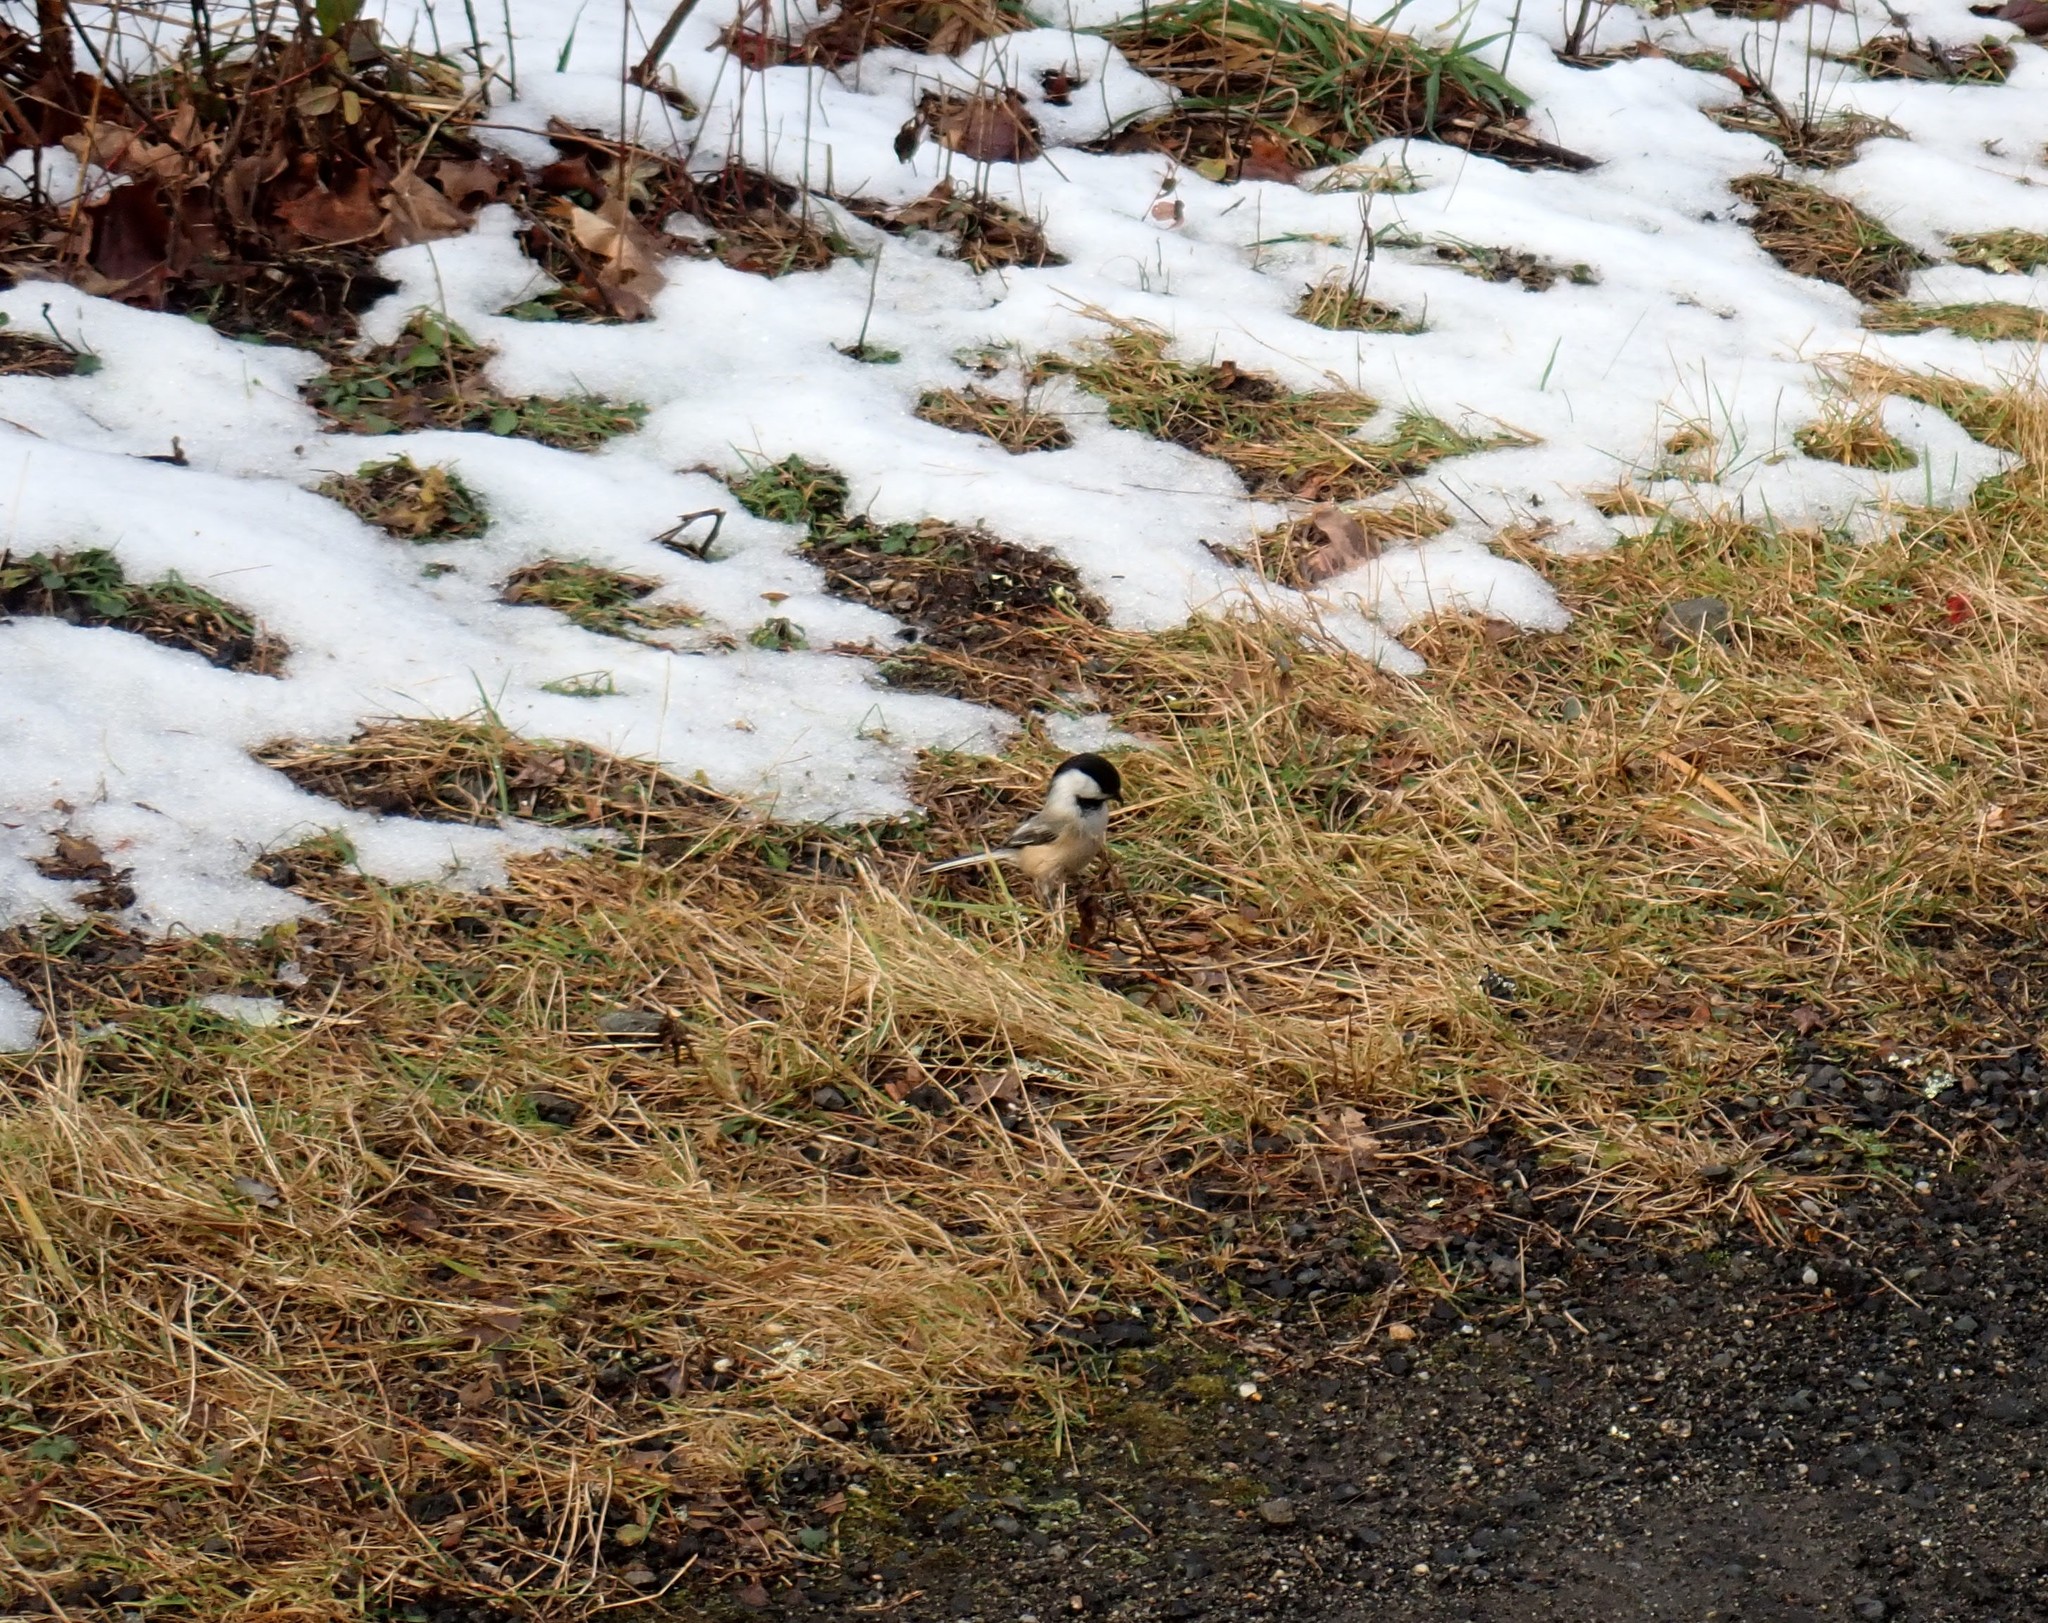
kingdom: Animalia
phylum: Chordata
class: Aves
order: Passeriformes
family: Paridae
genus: Poecile
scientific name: Poecile atricapillus
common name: Black-capped chickadee
